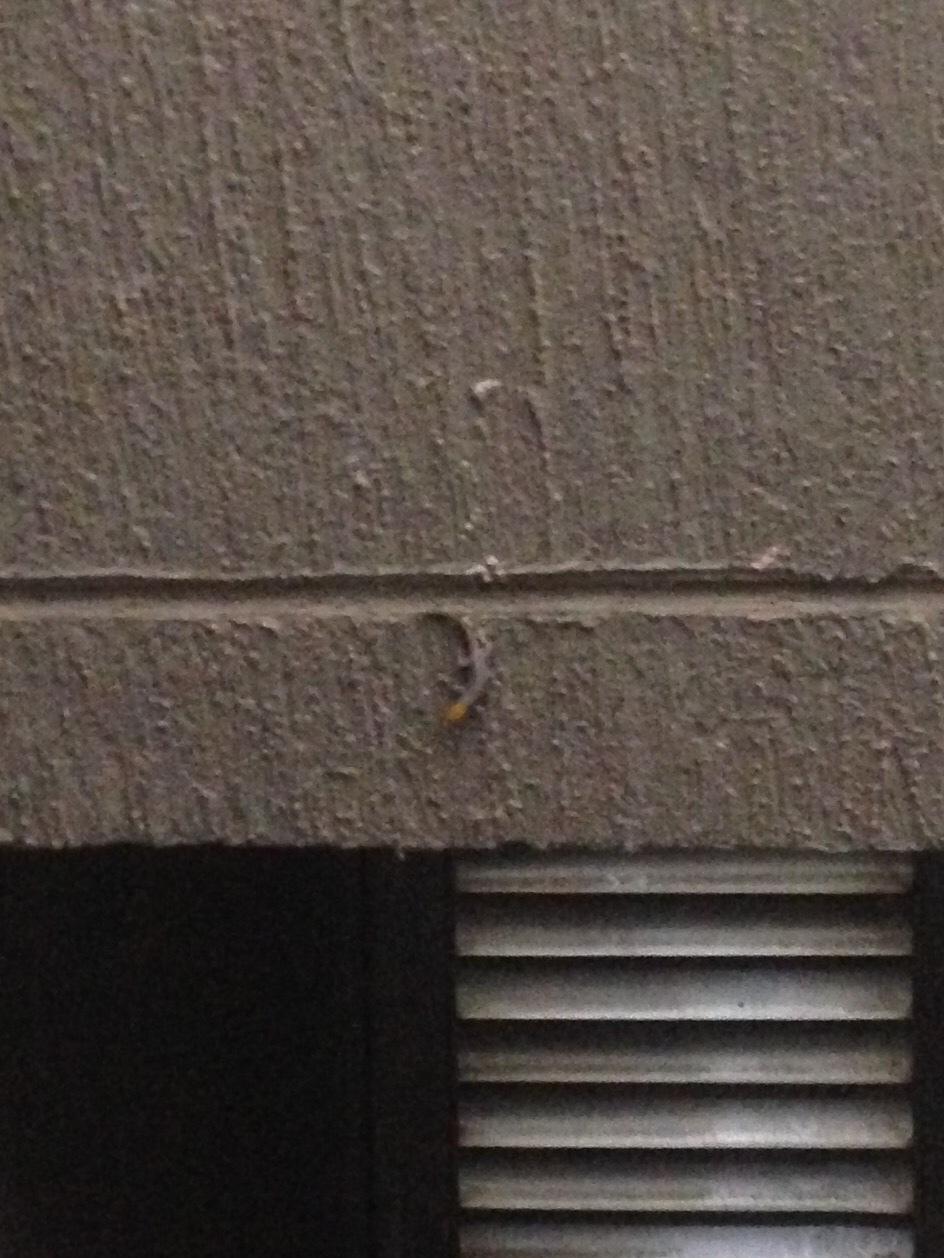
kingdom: Animalia
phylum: Chordata
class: Squamata
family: Sphaerodactylidae
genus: Gonatodes
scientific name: Gonatodes albogularis
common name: Yellow-headed gecko
